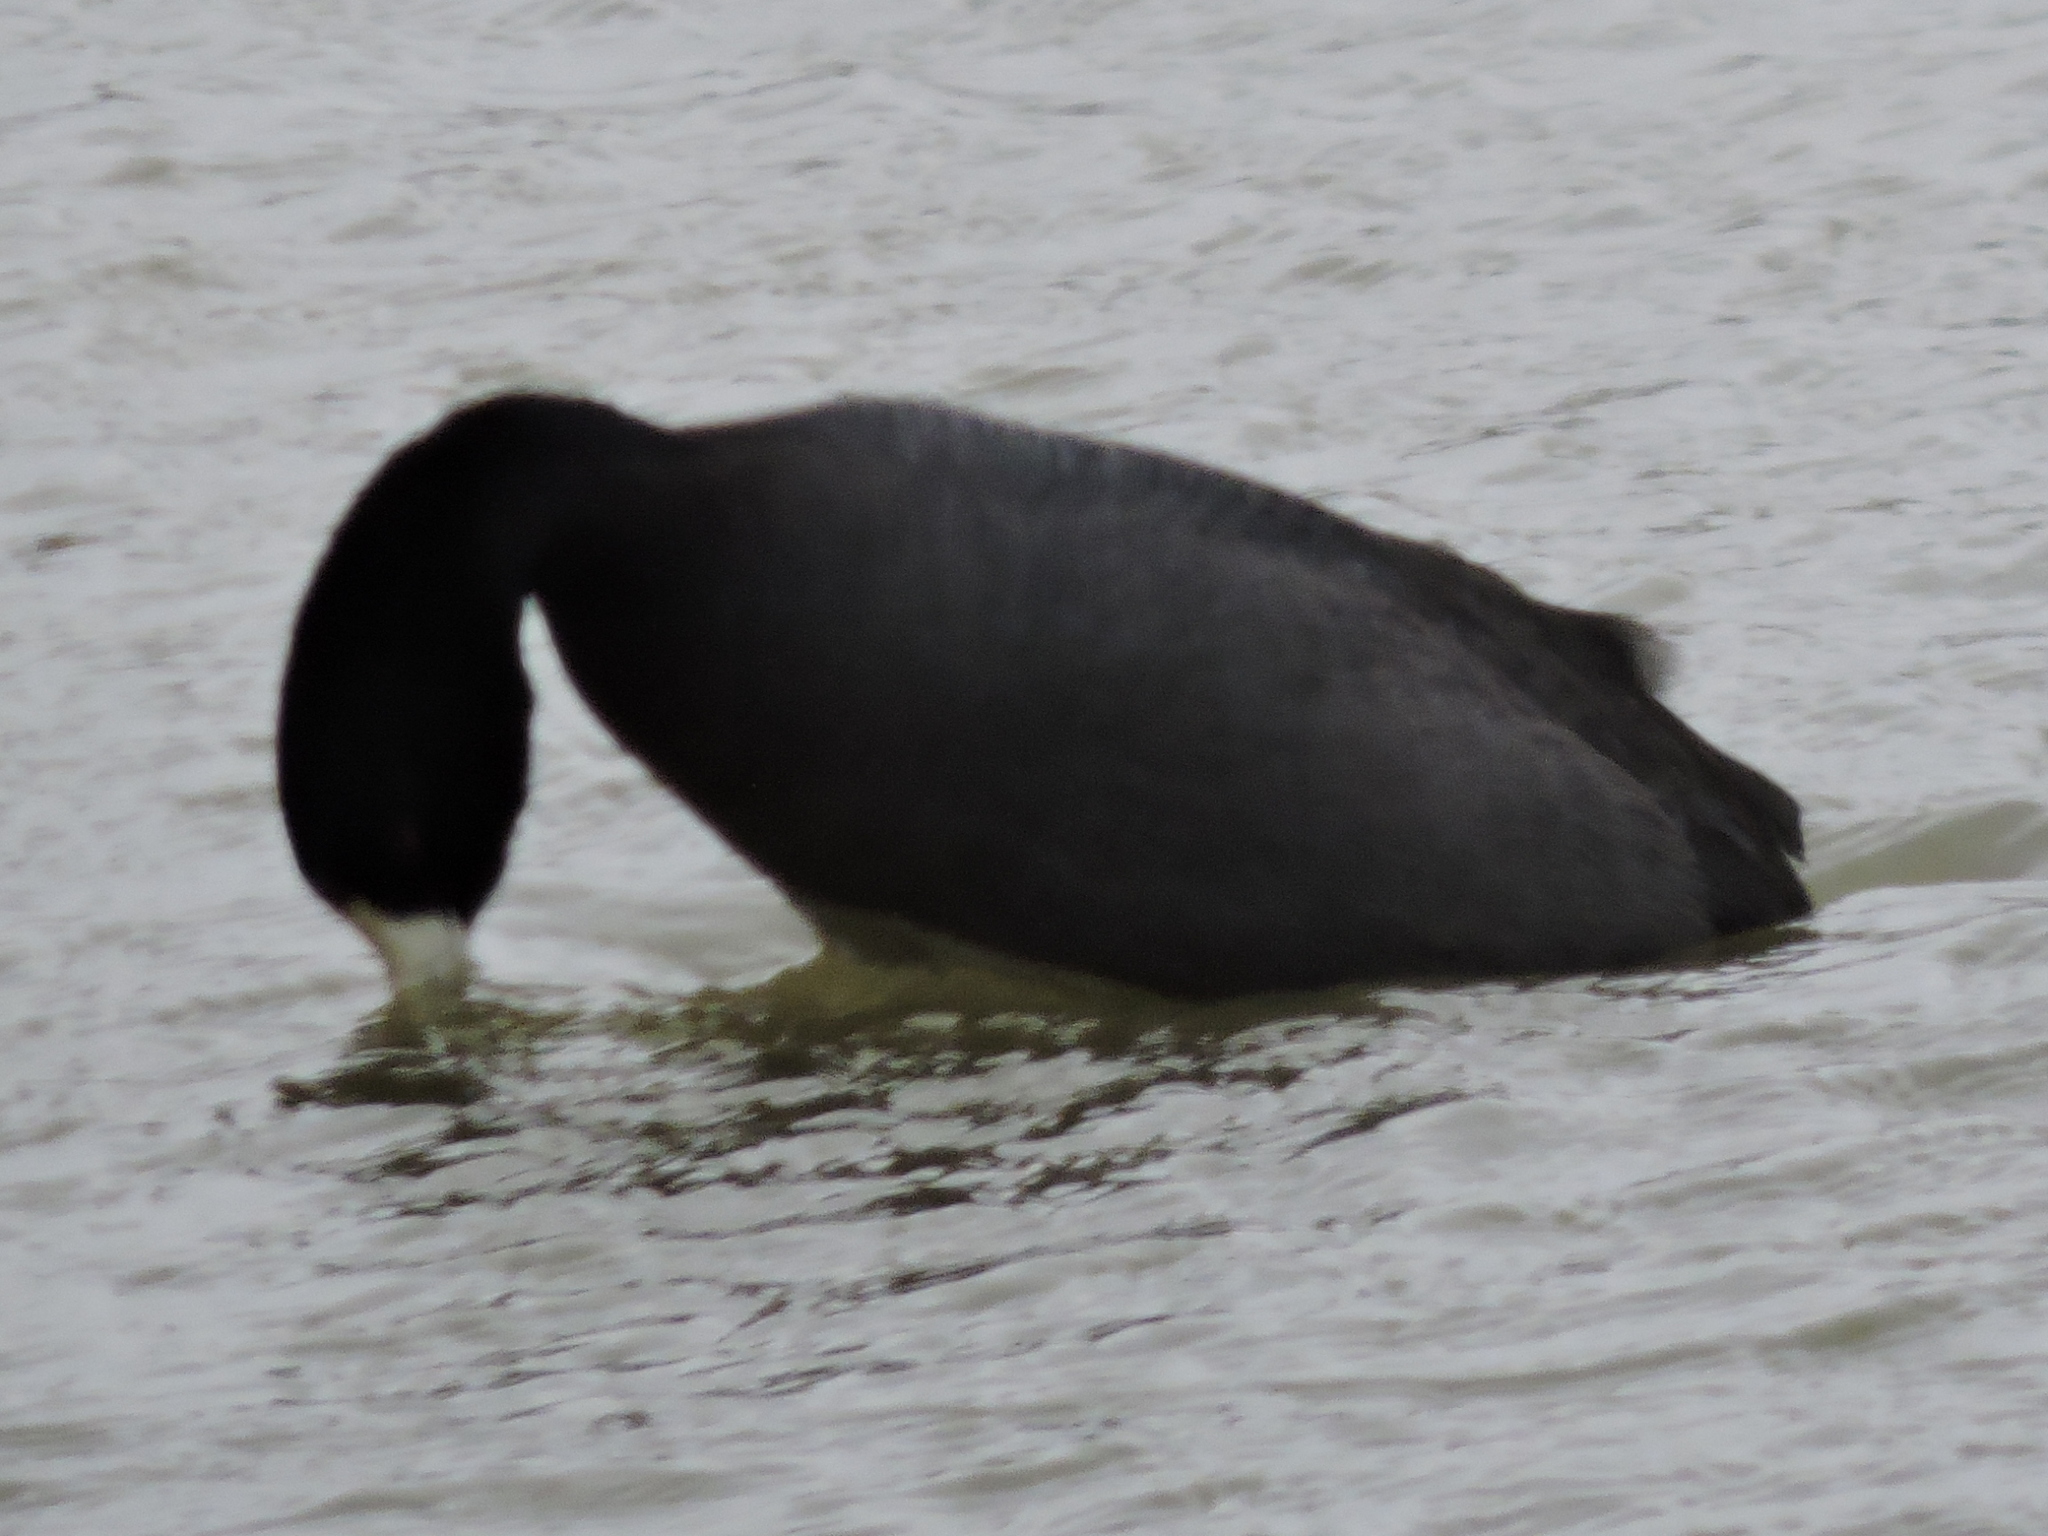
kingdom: Animalia
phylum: Chordata
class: Aves
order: Gruiformes
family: Rallidae
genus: Fulica
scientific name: Fulica americana
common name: American coot
